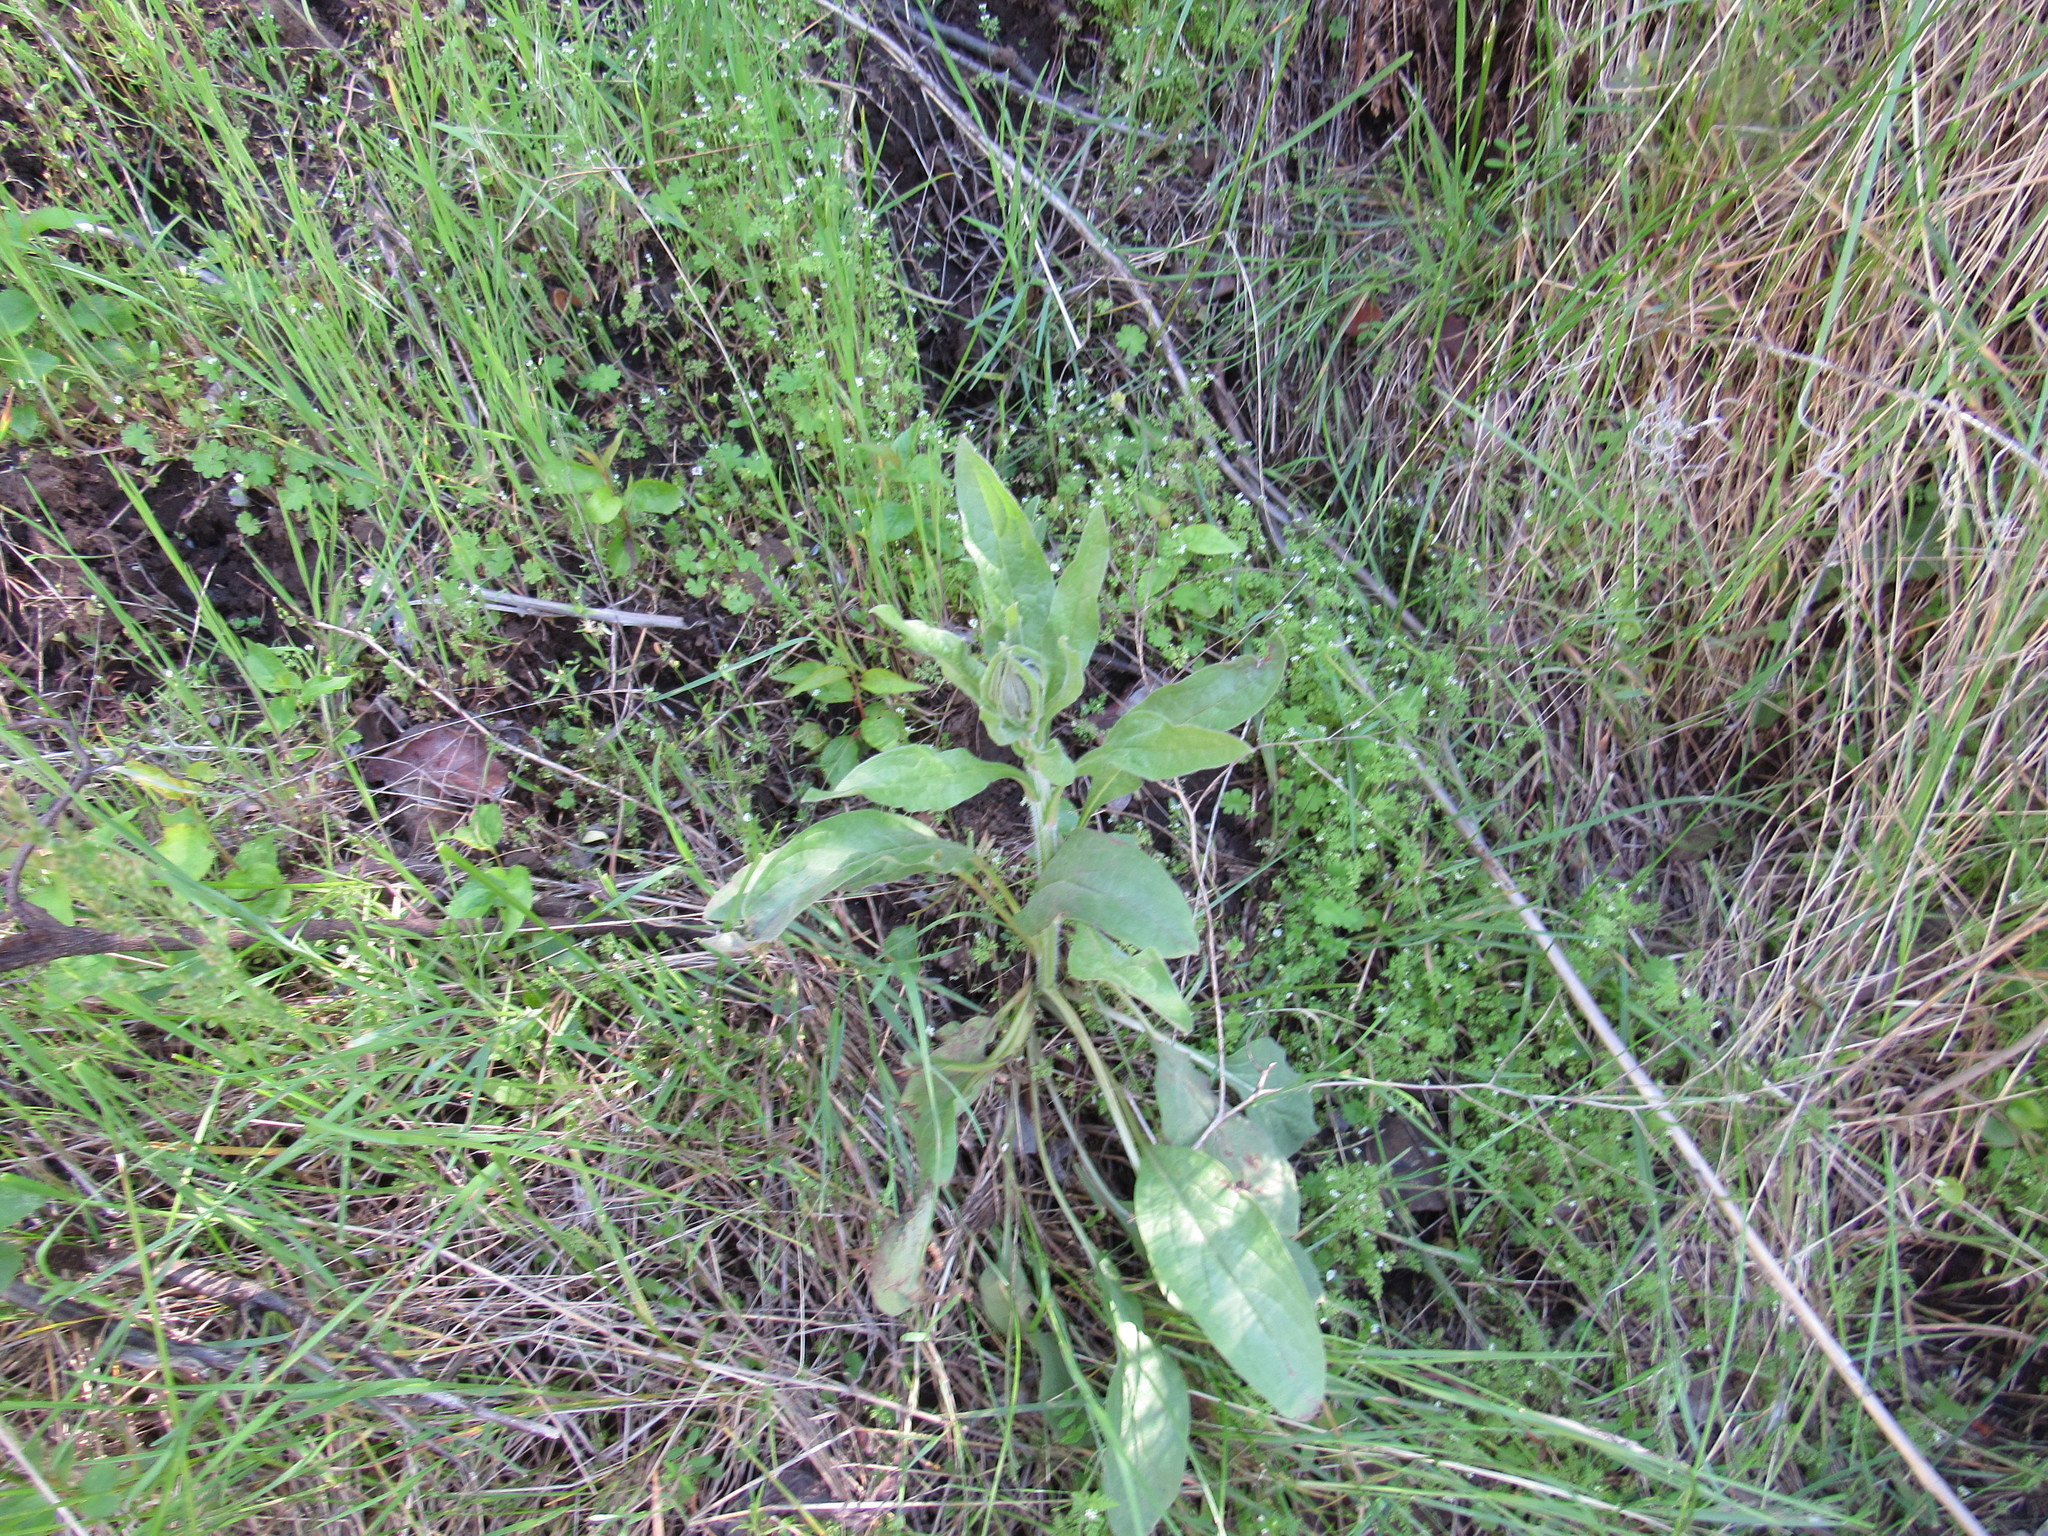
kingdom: Plantae
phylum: Tracheophyta
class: Magnoliopsida
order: Boraginales
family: Boraginaceae
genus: Cynoglossum
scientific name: Cynoglossum officinale
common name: Hound's-tongue
